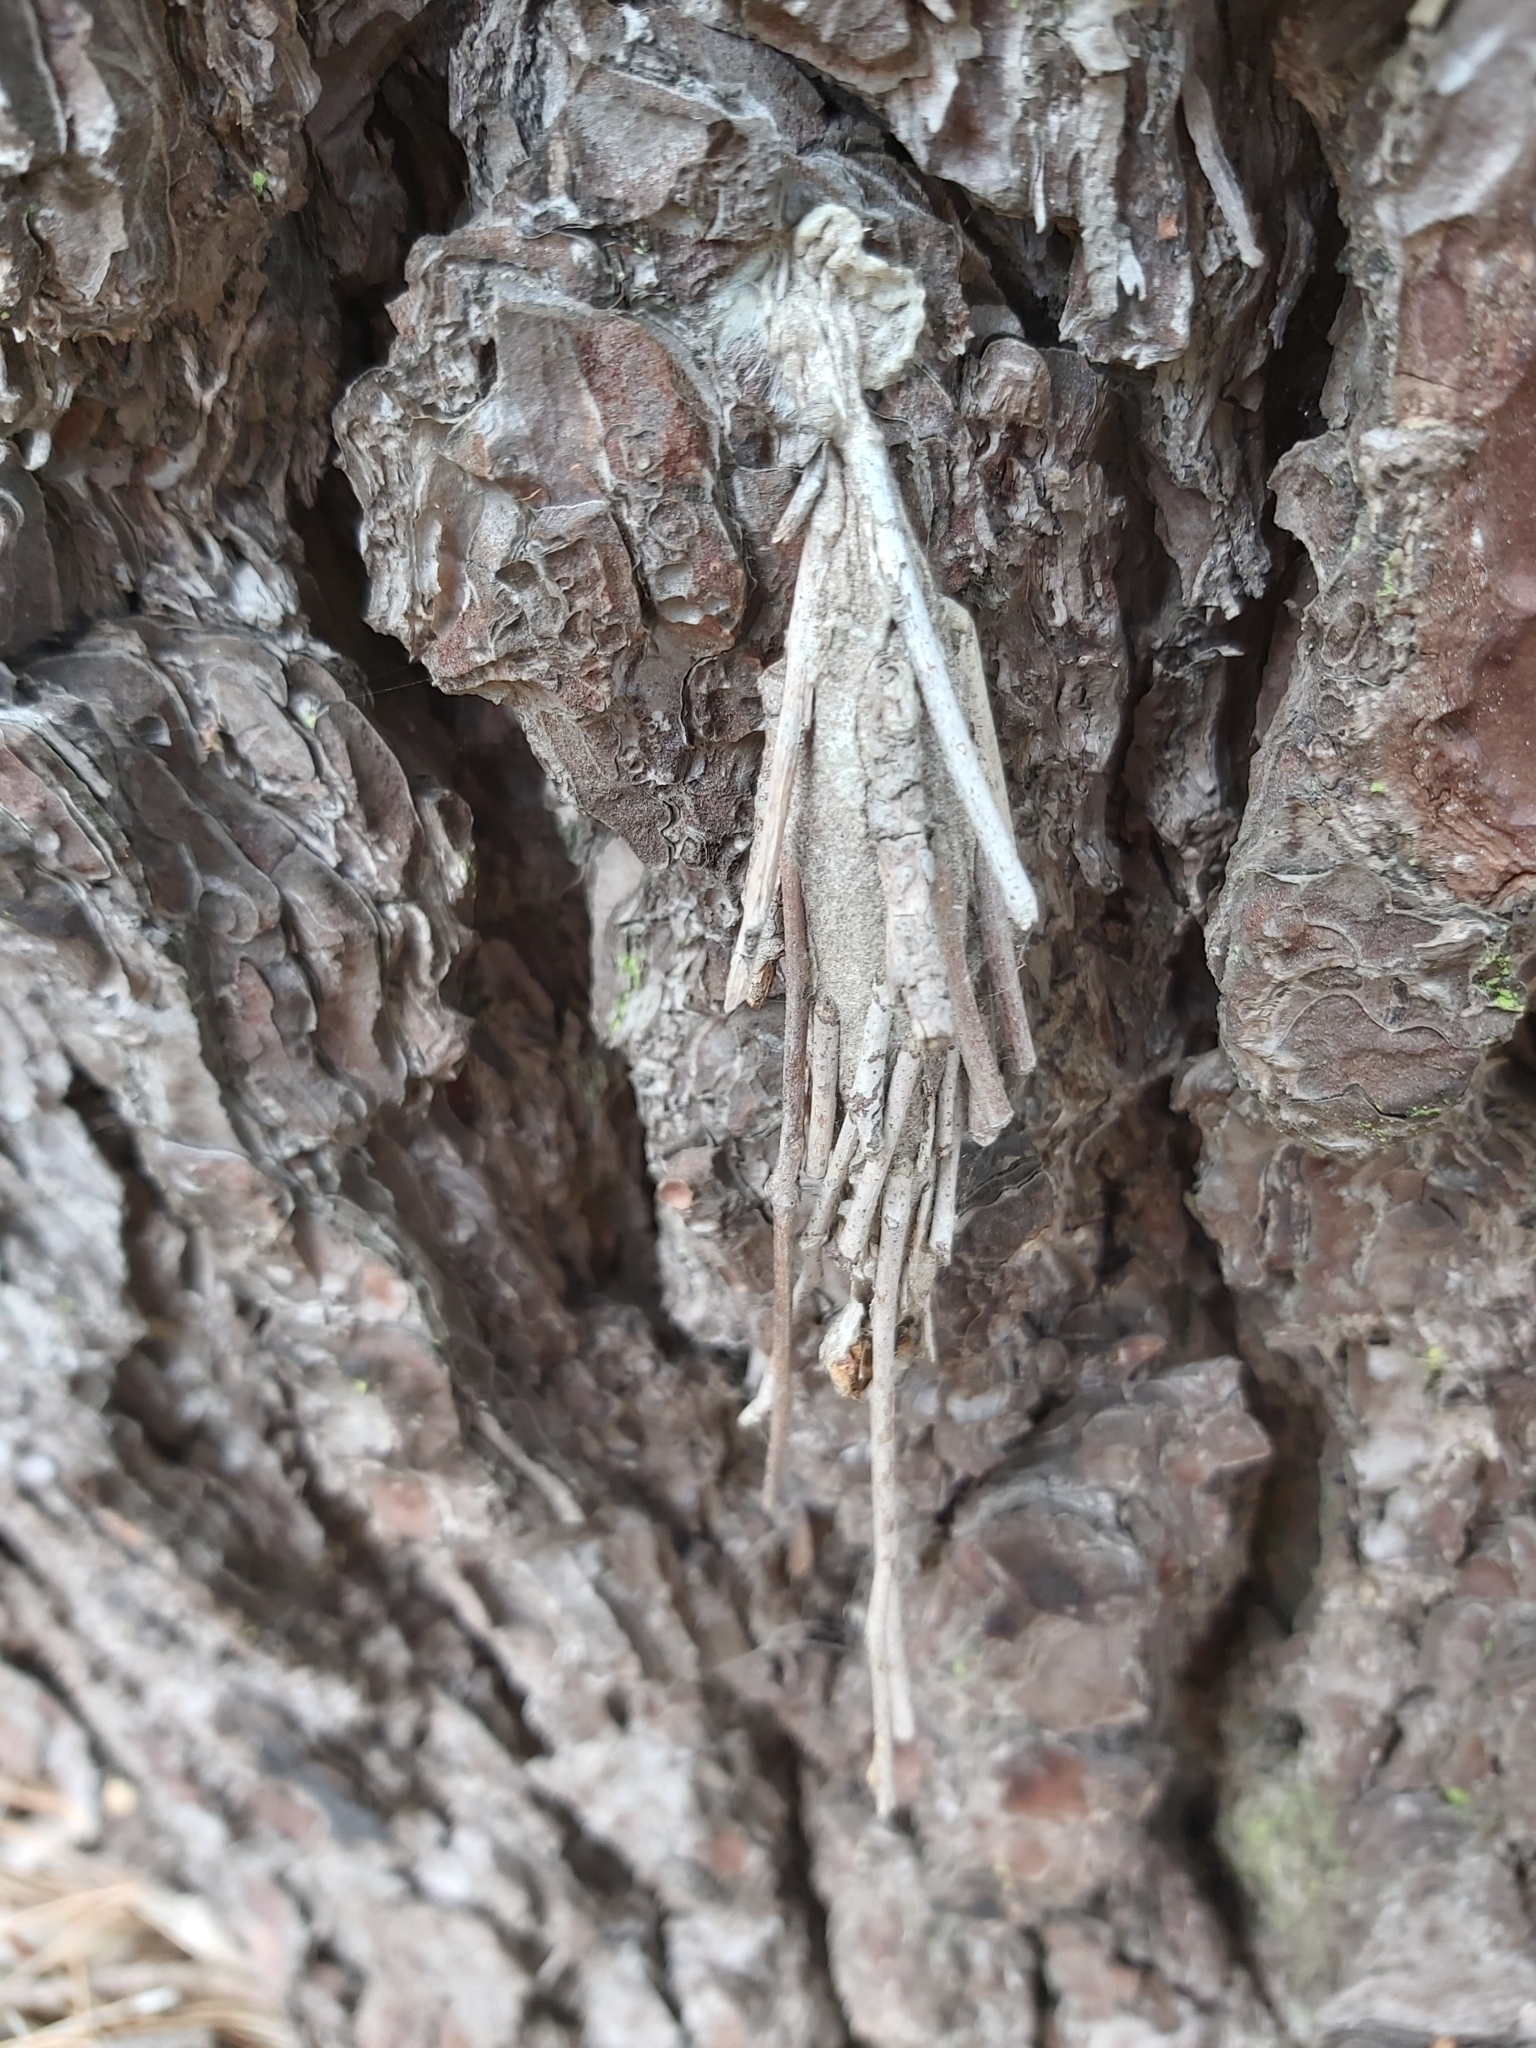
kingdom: Animalia
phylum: Arthropoda
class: Insecta
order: Lepidoptera
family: Psychidae
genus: Metura
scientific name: Metura elongatus
